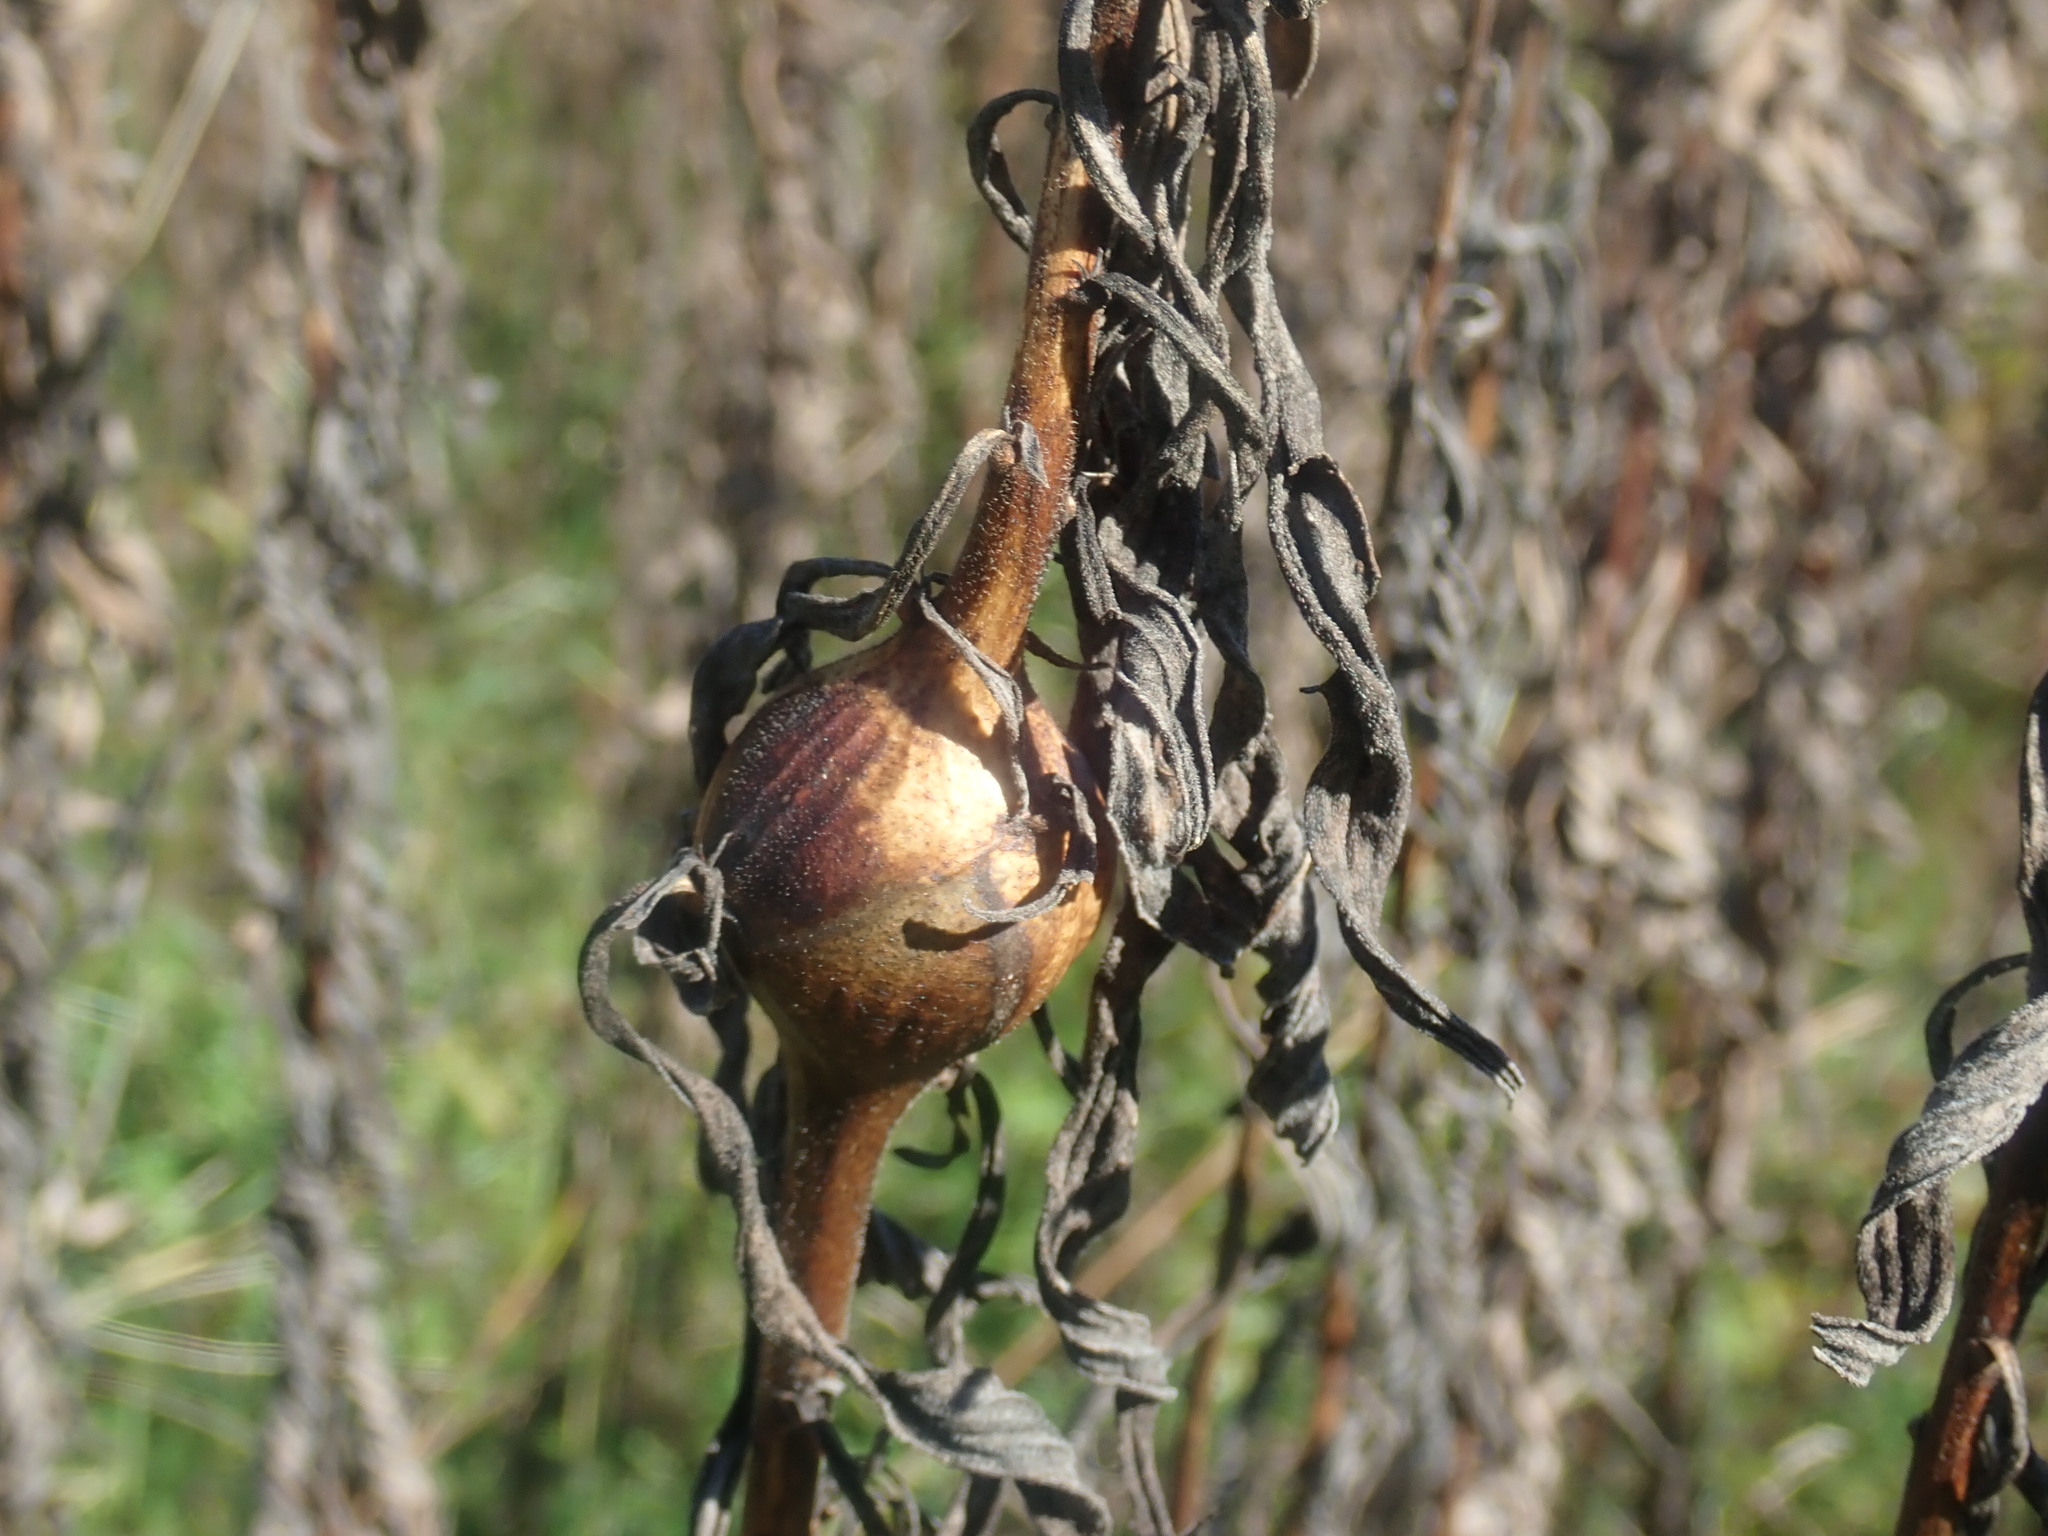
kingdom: Animalia
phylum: Arthropoda
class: Insecta
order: Diptera
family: Tephritidae
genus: Eurosta
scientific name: Eurosta solidaginis
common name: Goldenrod gall fly
